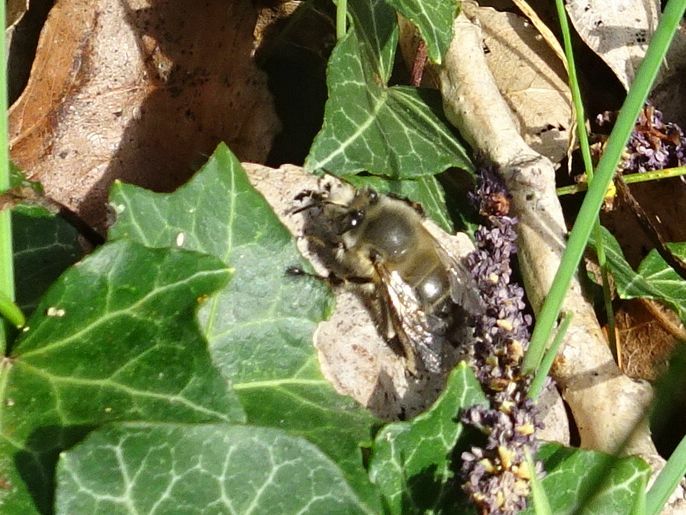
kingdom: Animalia
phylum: Arthropoda
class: Insecta
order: Hymenoptera
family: Apidae
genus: Anthophora
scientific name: Anthophora plumipes
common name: Hairy-footed flower bee
